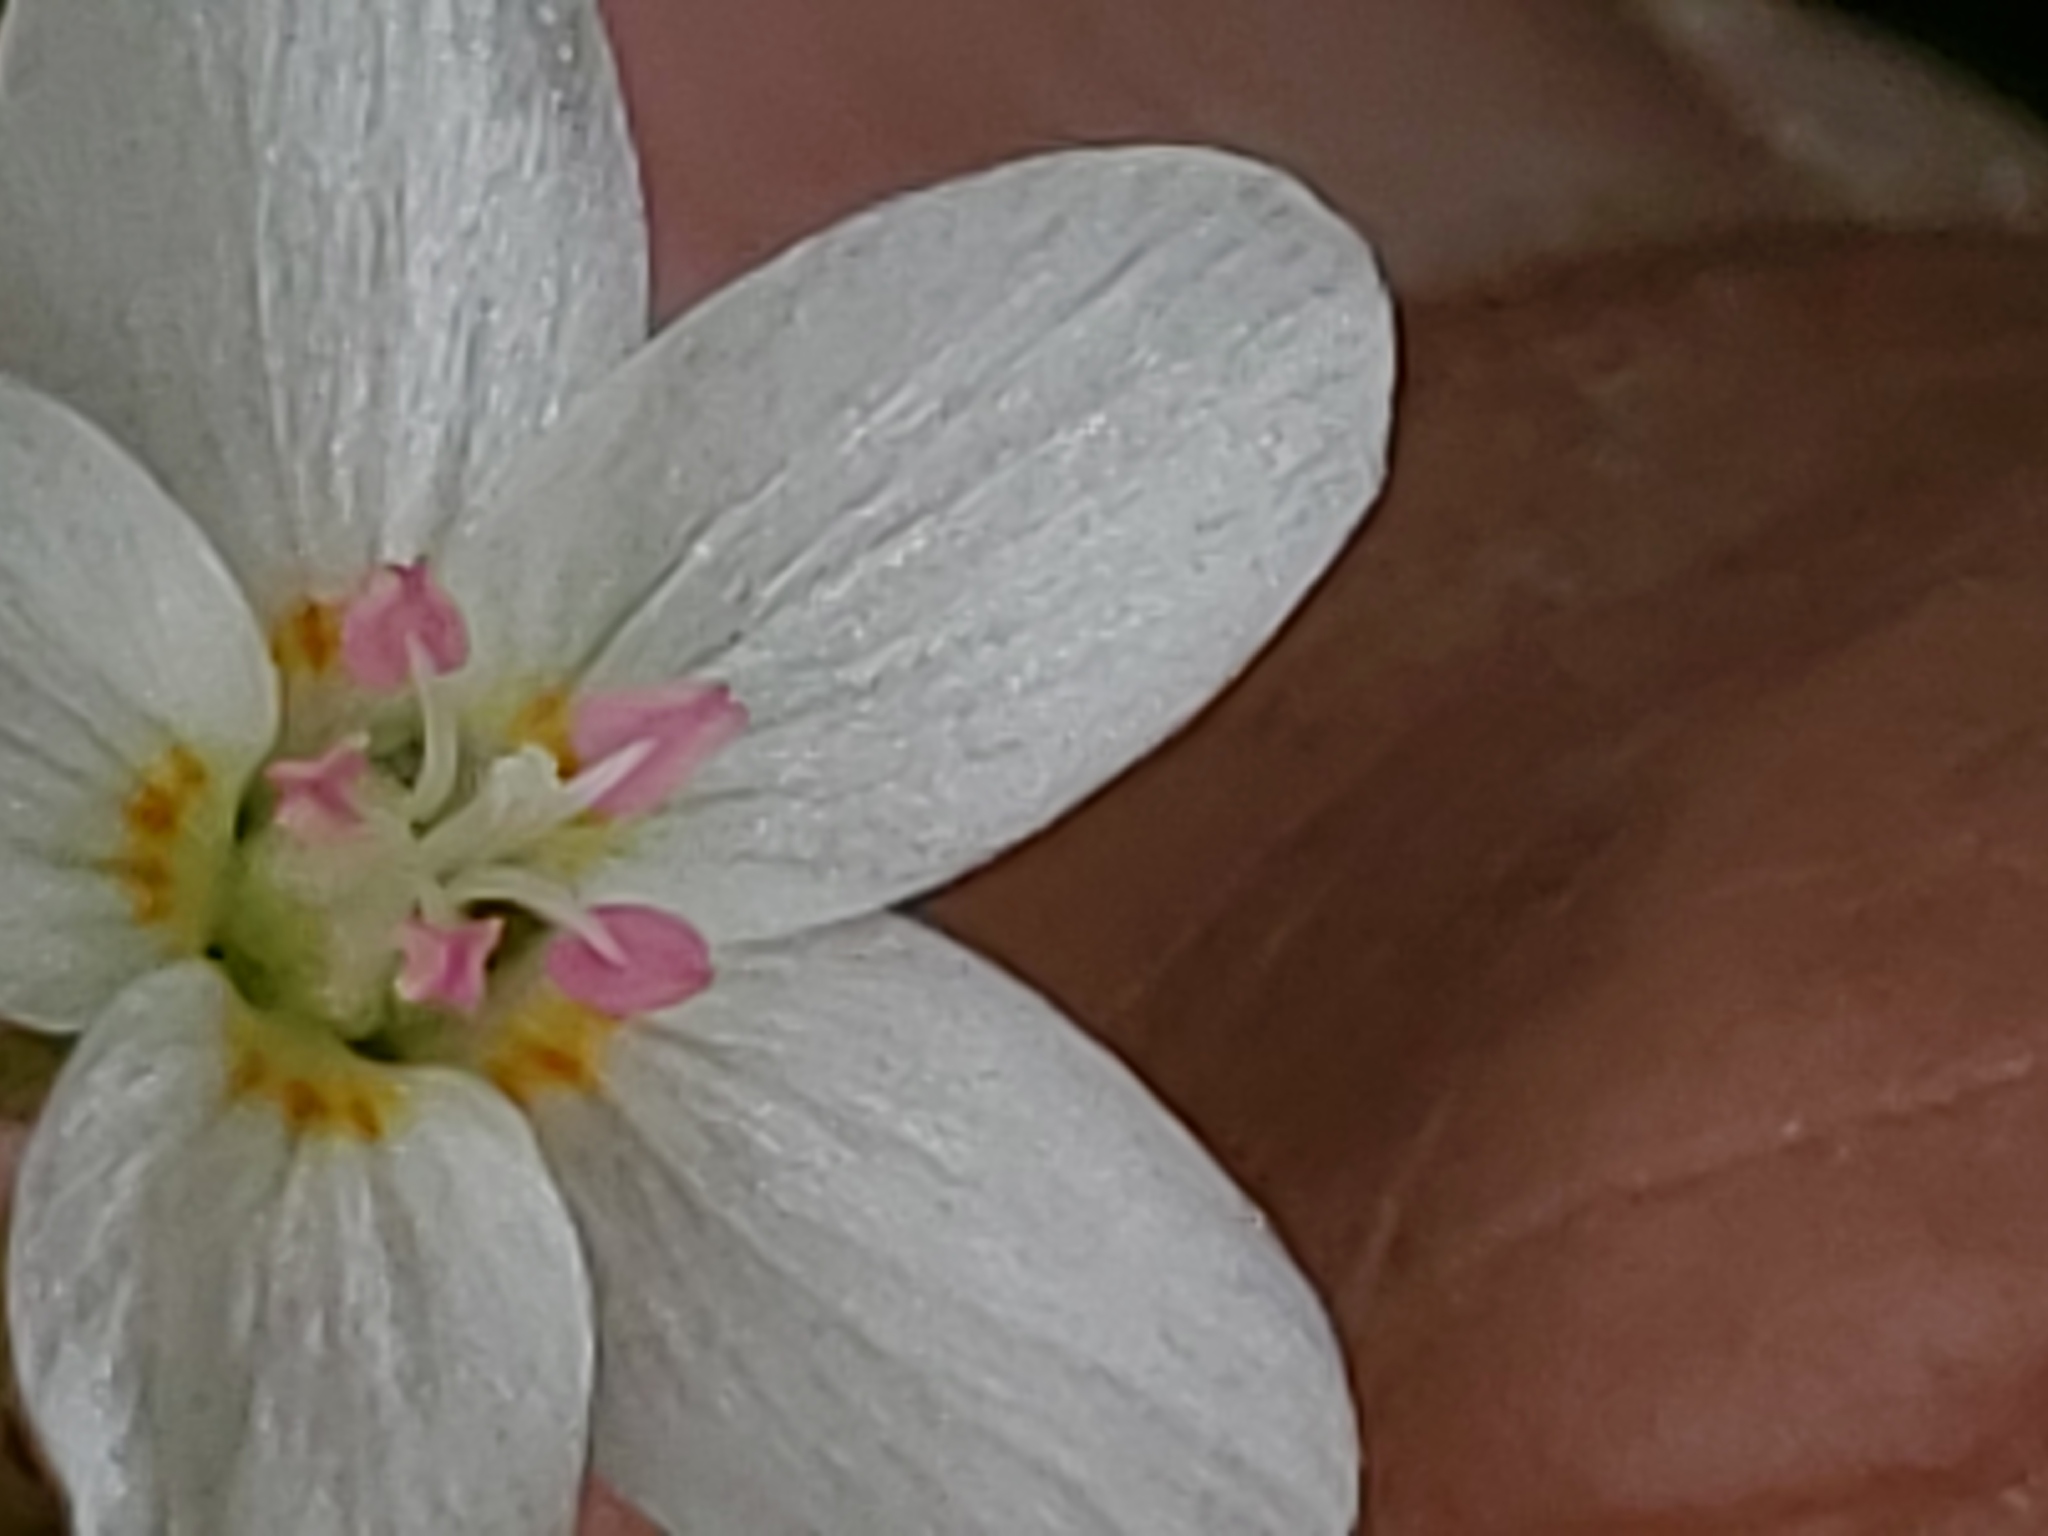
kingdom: Plantae
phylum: Tracheophyta
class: Magnoliopsida
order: Caryophyllales
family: Montiaceae
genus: Claytonia
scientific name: Claytonia lanceolata
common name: Western spring-beauty
